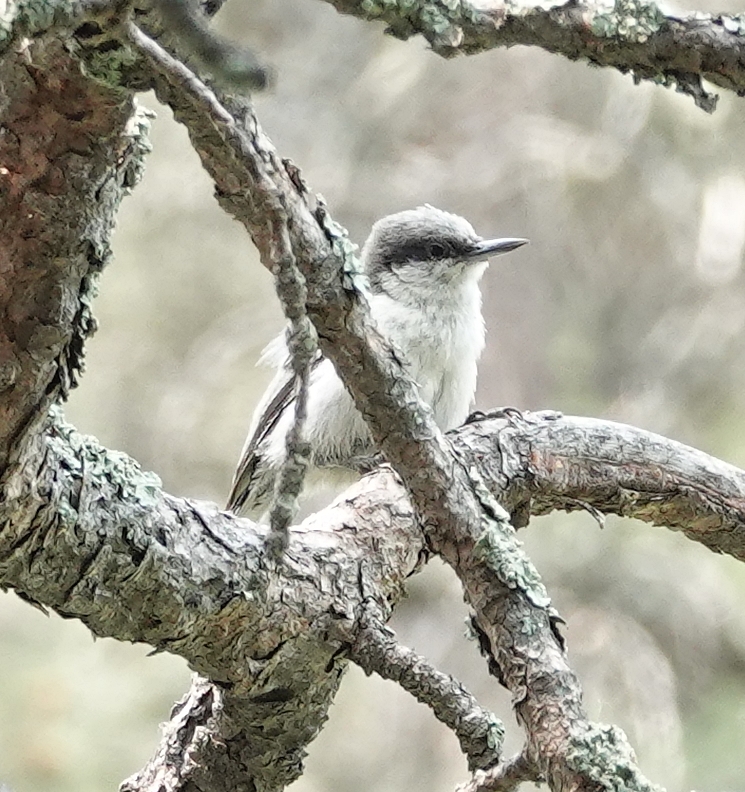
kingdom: Animalia
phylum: Chordata
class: Aves
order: Passeriformes
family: Sittidae
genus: Sitta
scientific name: Sitta pygmaea
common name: Pygmy nuthatch
